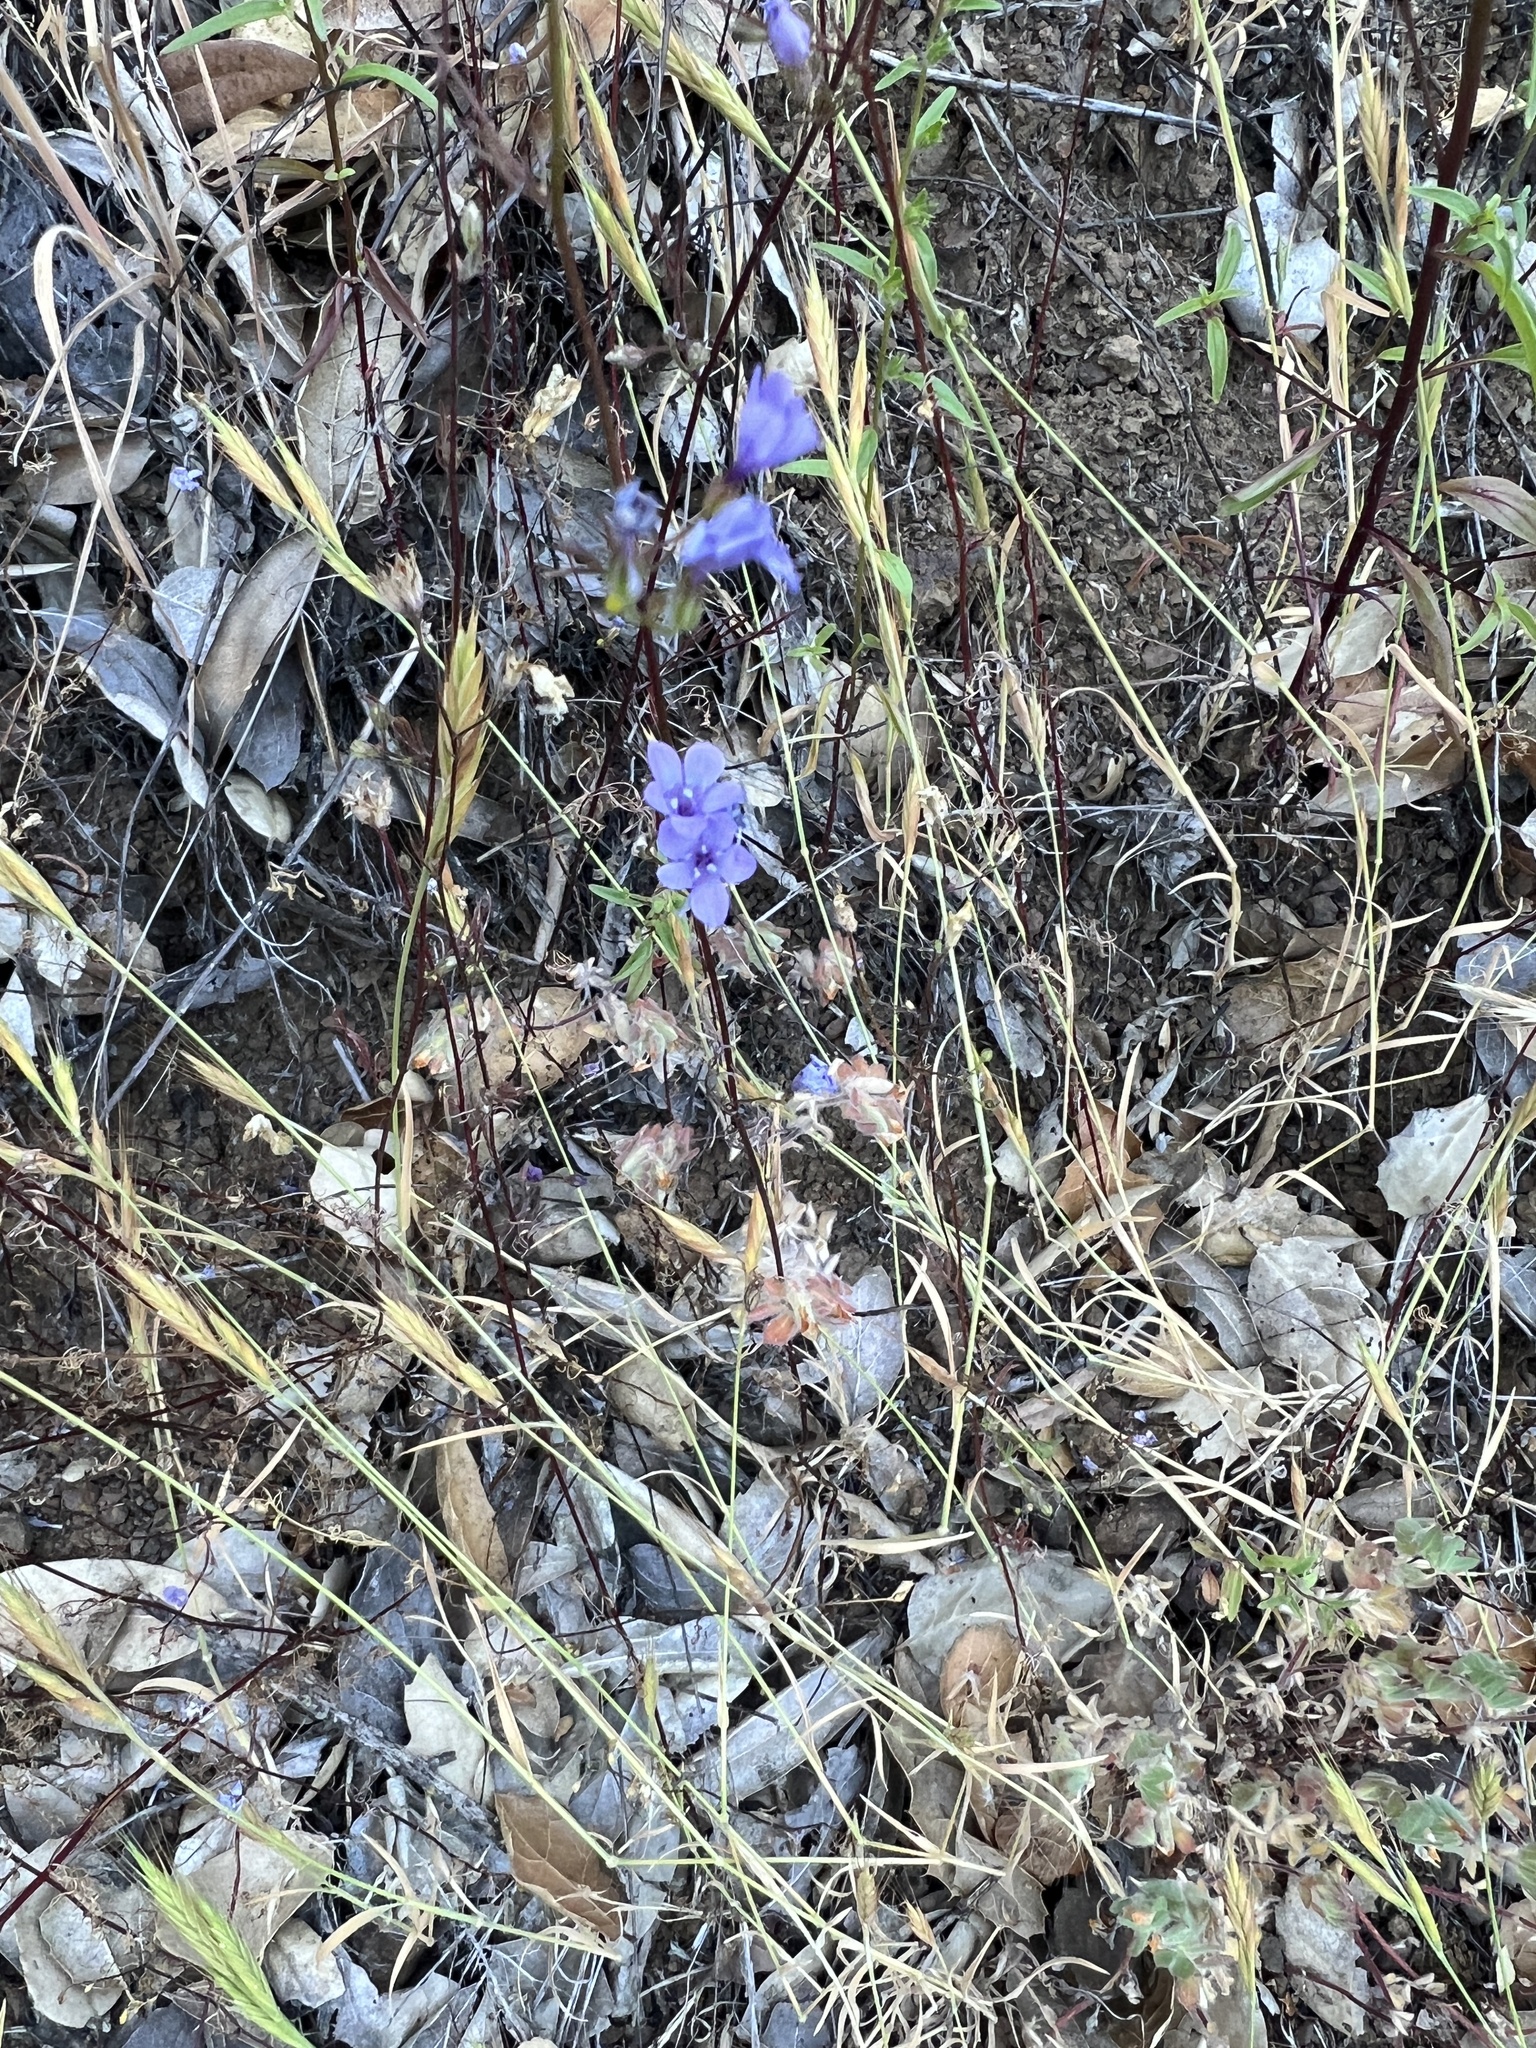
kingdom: Plantae
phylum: Tracheophyta
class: Magnoliopsida
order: Ericales
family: Polemoniaceae
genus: Gilia
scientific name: Gilia achilleifolia
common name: California gily-flower
